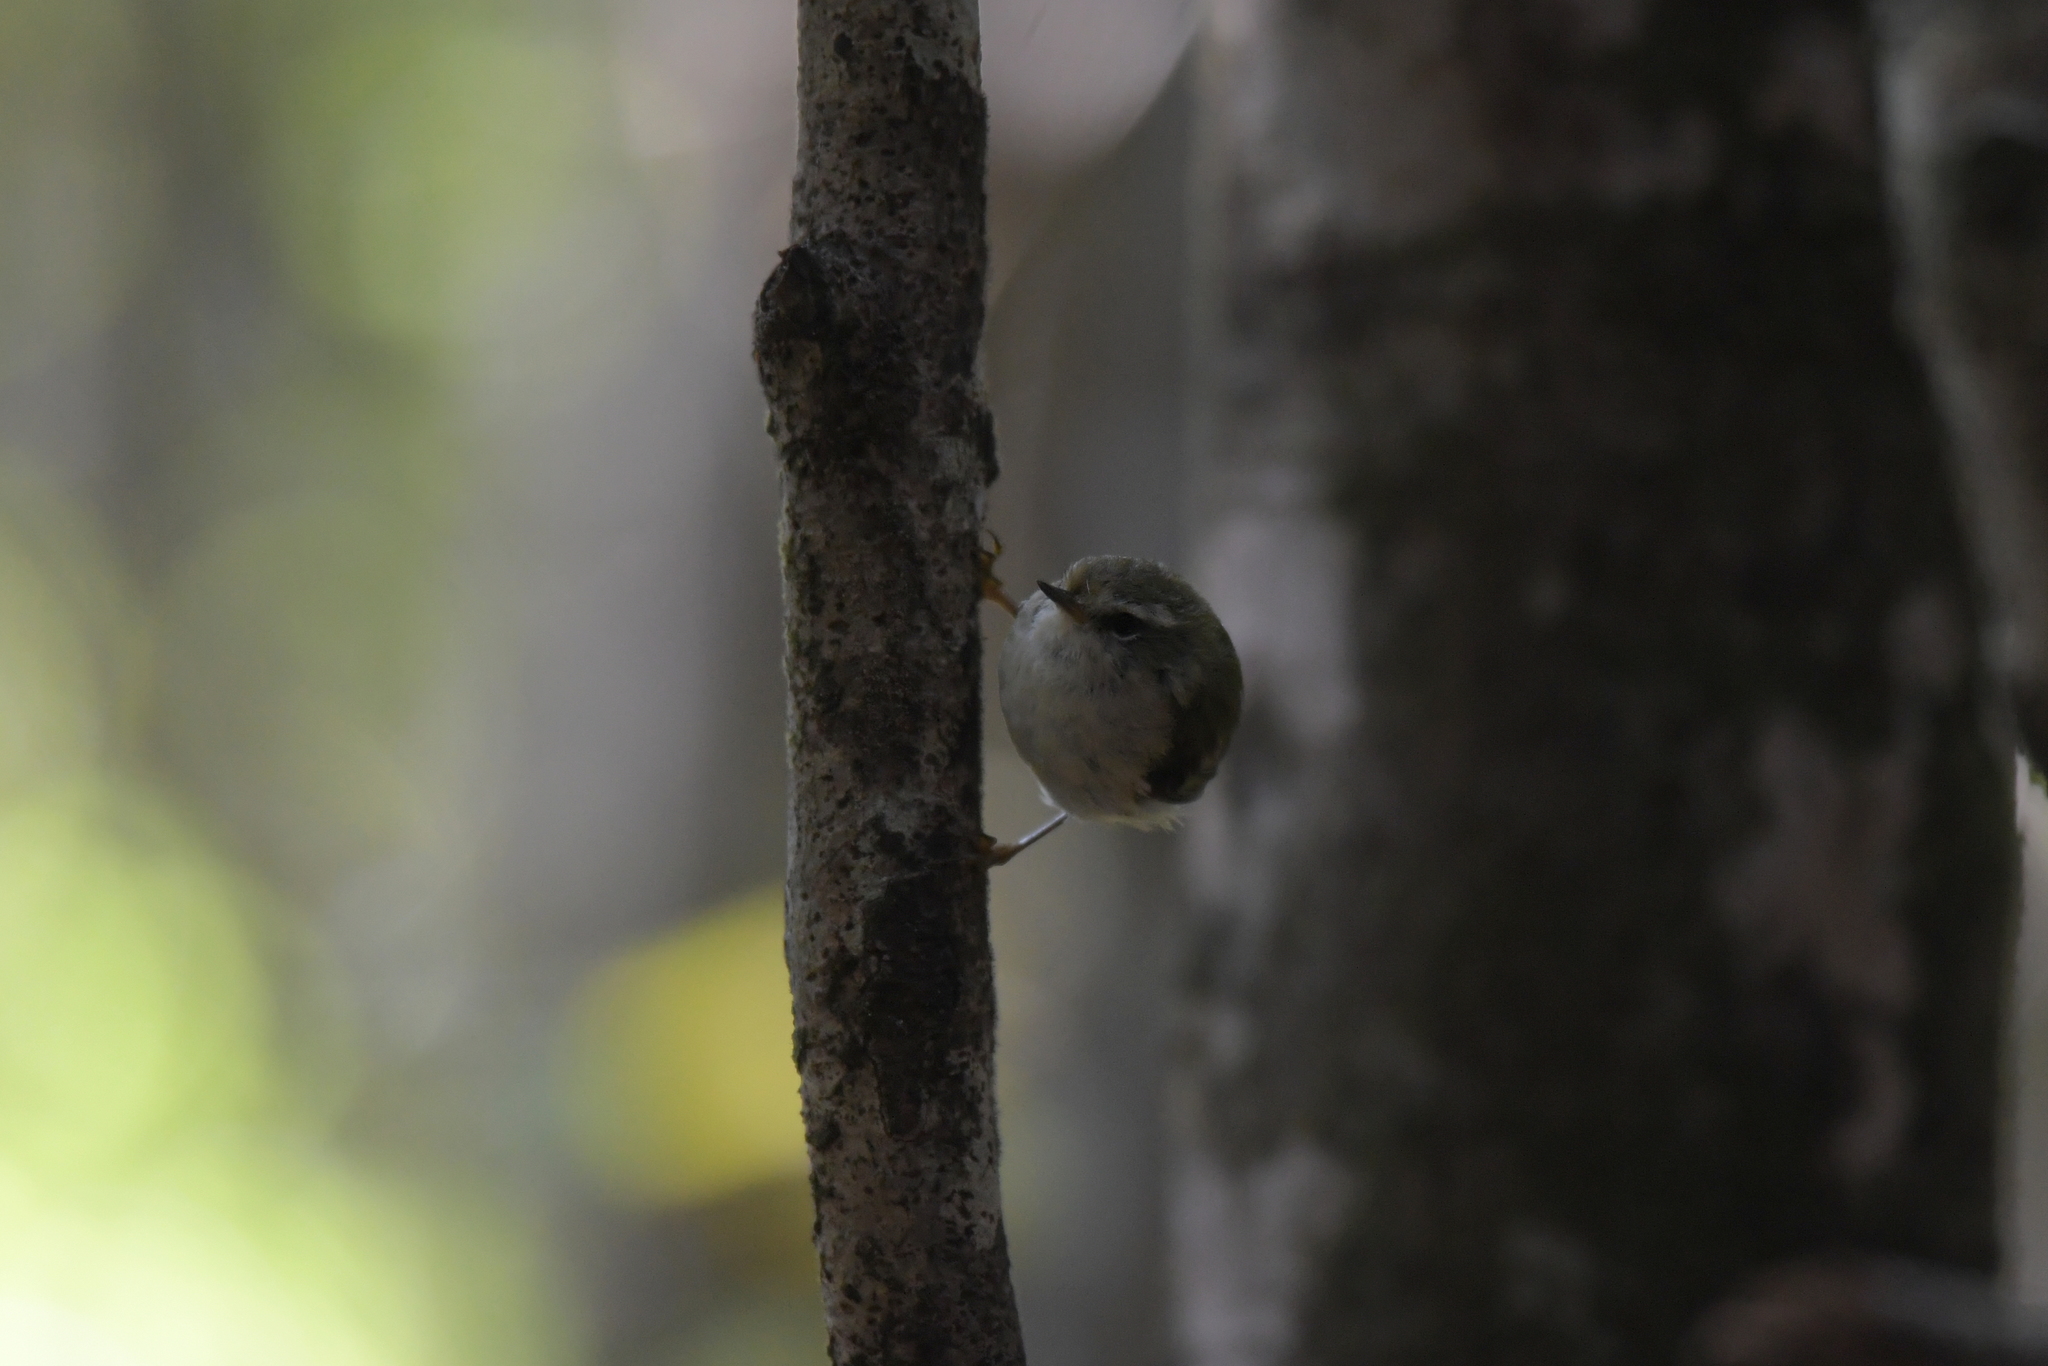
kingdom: Animalia
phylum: Chordata
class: Aves
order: Passeriformes
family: Acanthisittidae
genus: Acanthisitta
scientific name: Acanthisitta chloris
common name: Rifleman
